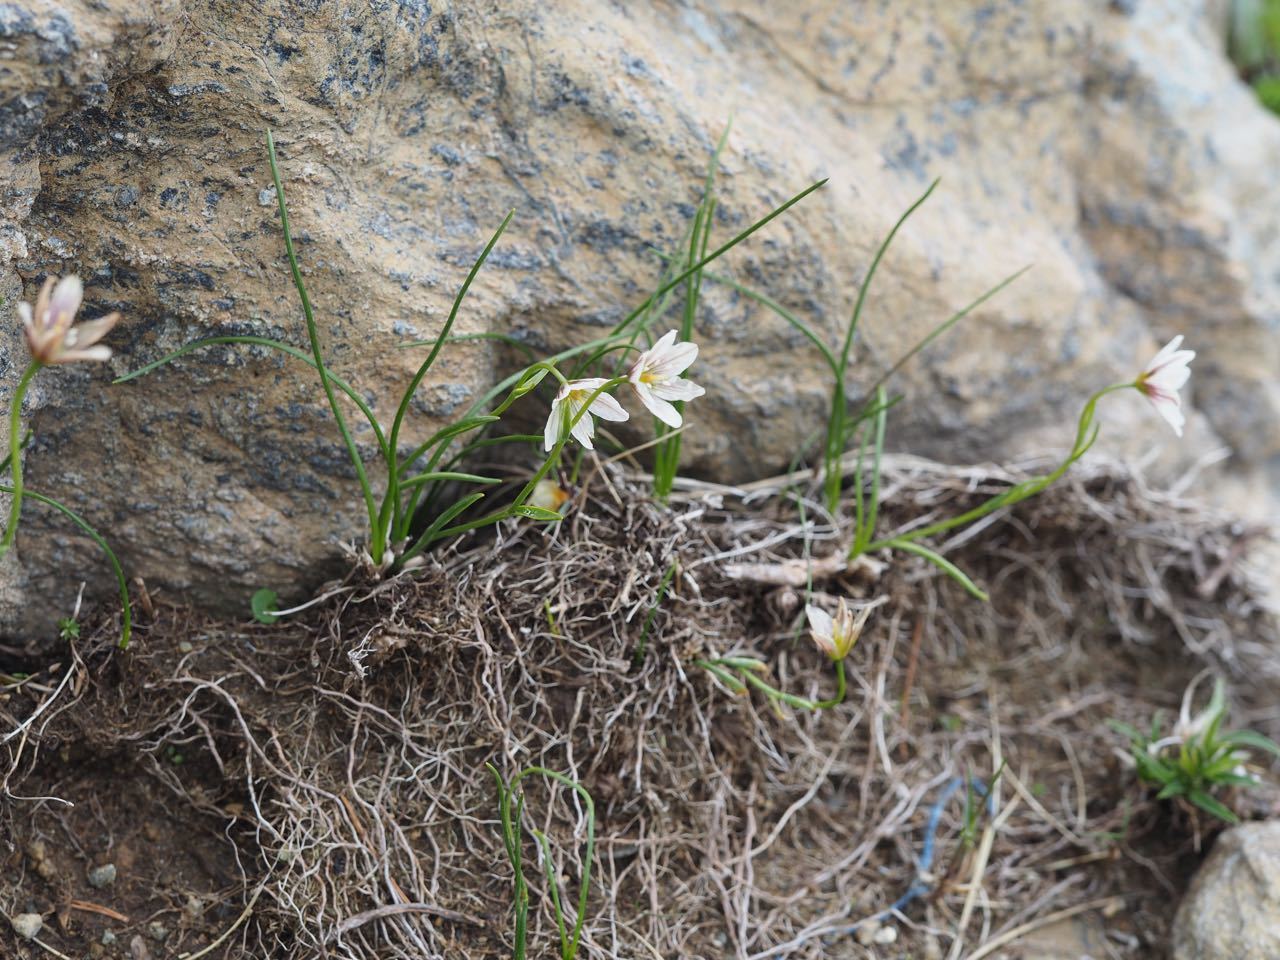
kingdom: Plantae
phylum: Tracheophyta
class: Liliopsida
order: Liliales
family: Liliaceae
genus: Gagea
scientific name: Gagea serotina
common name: Snowdon lily
